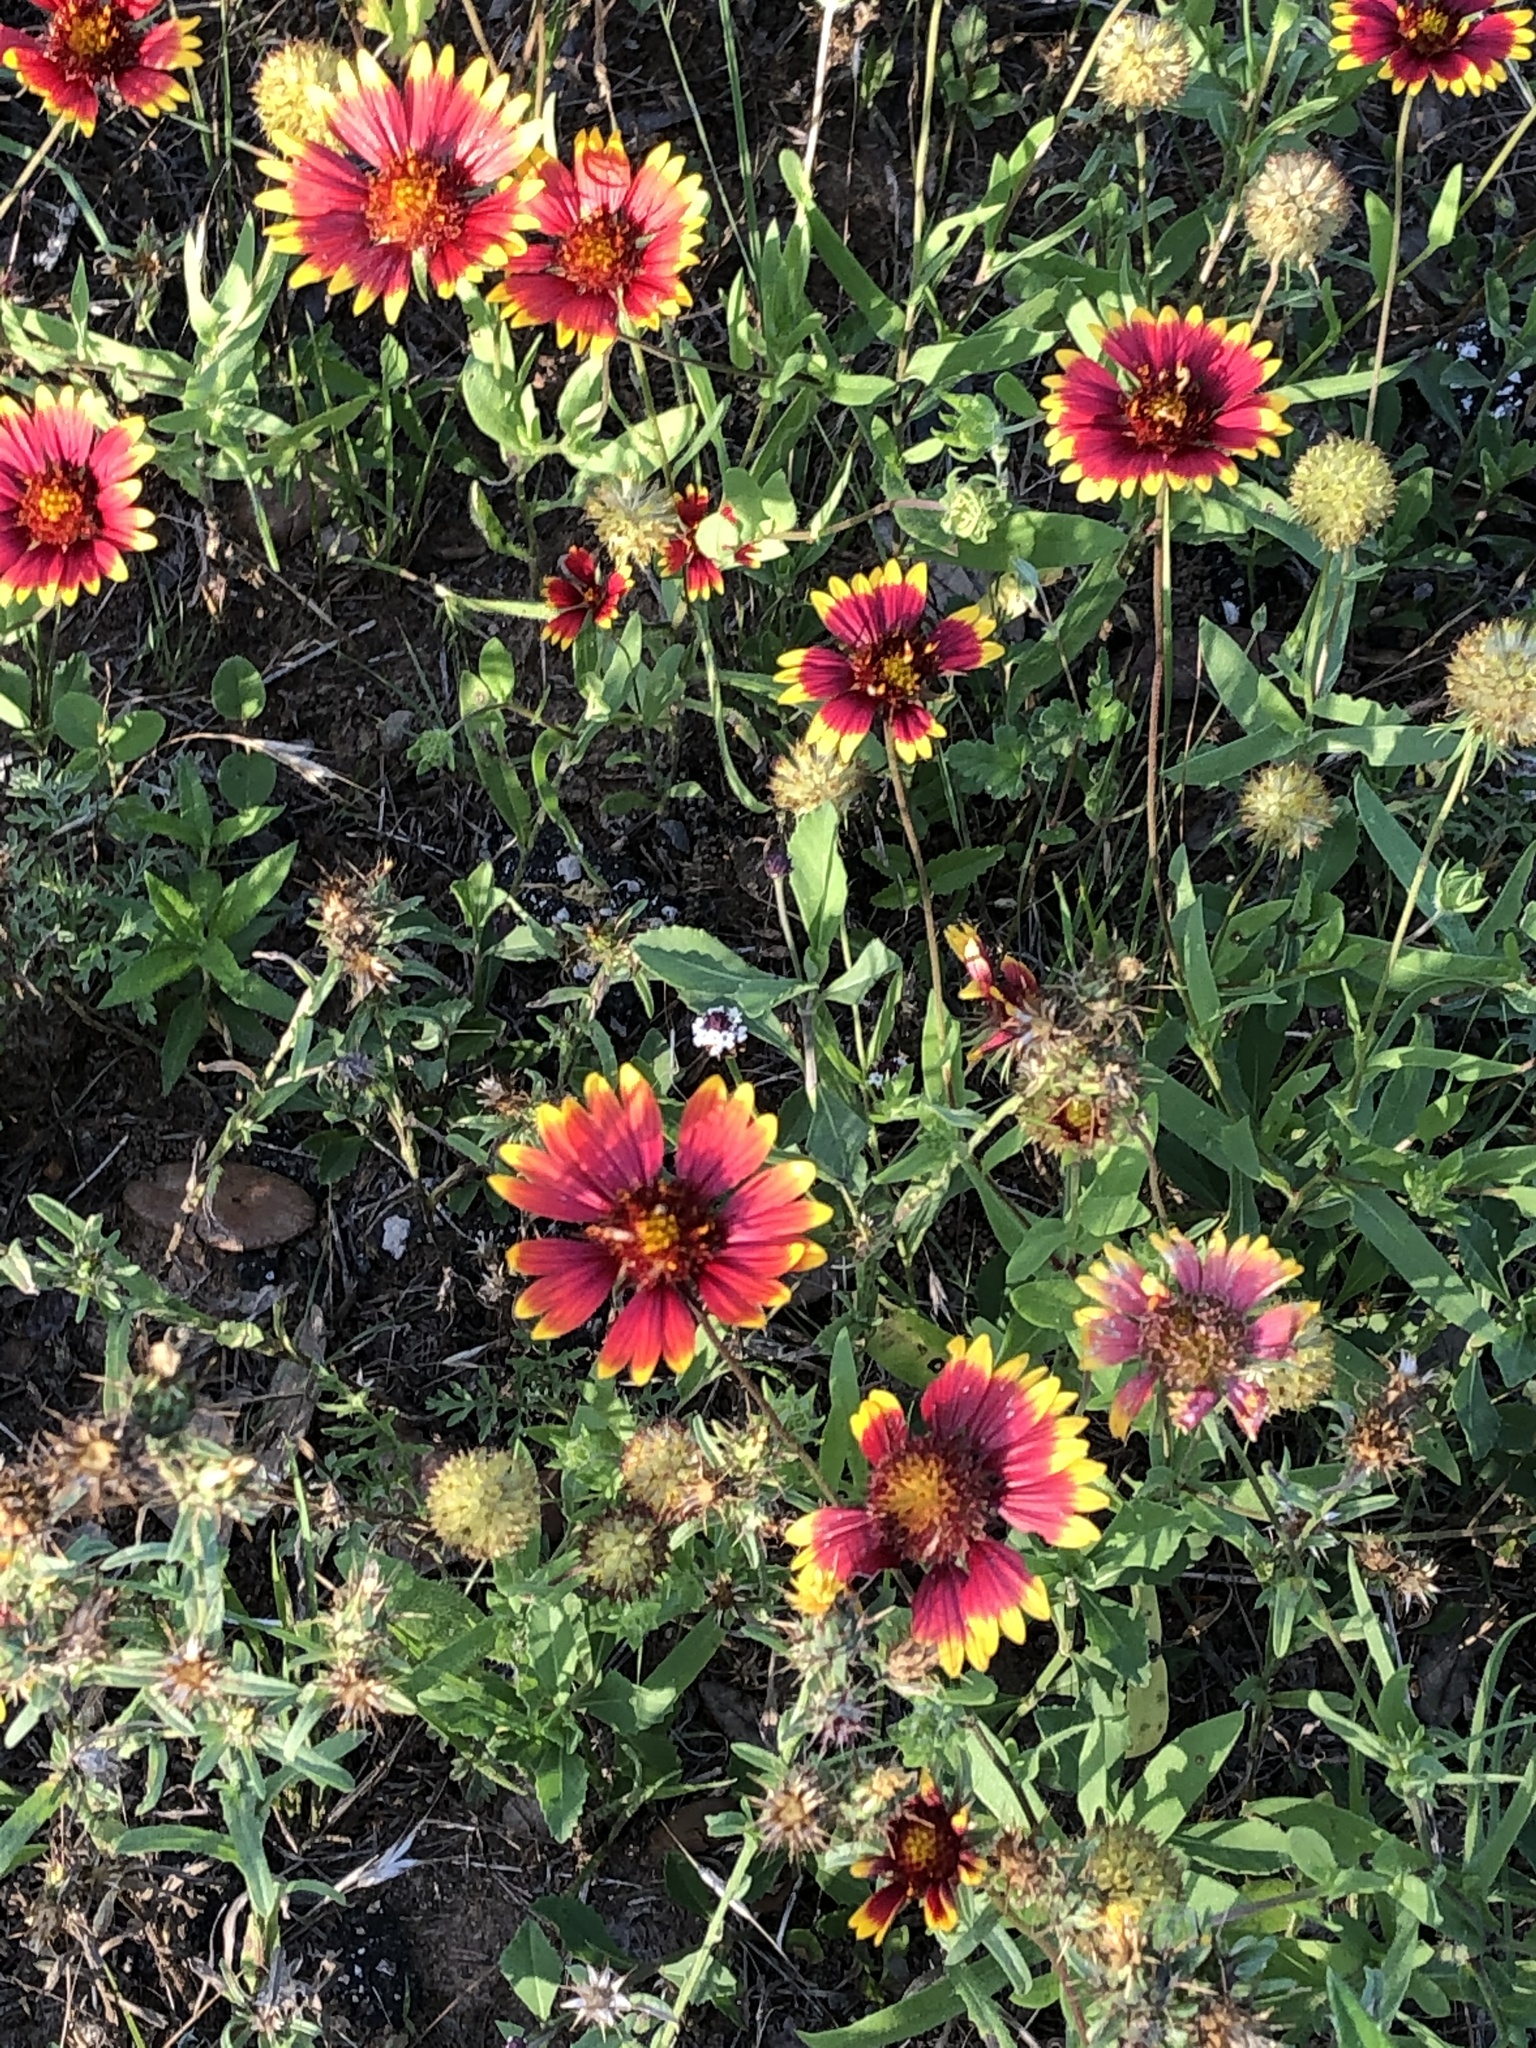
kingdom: Plantae
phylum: Tracheophyta
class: Magnoliopsida
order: Asterales
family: Asteraceae
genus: Gaillardia
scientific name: Gaillardia pulchella
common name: Firewheel
